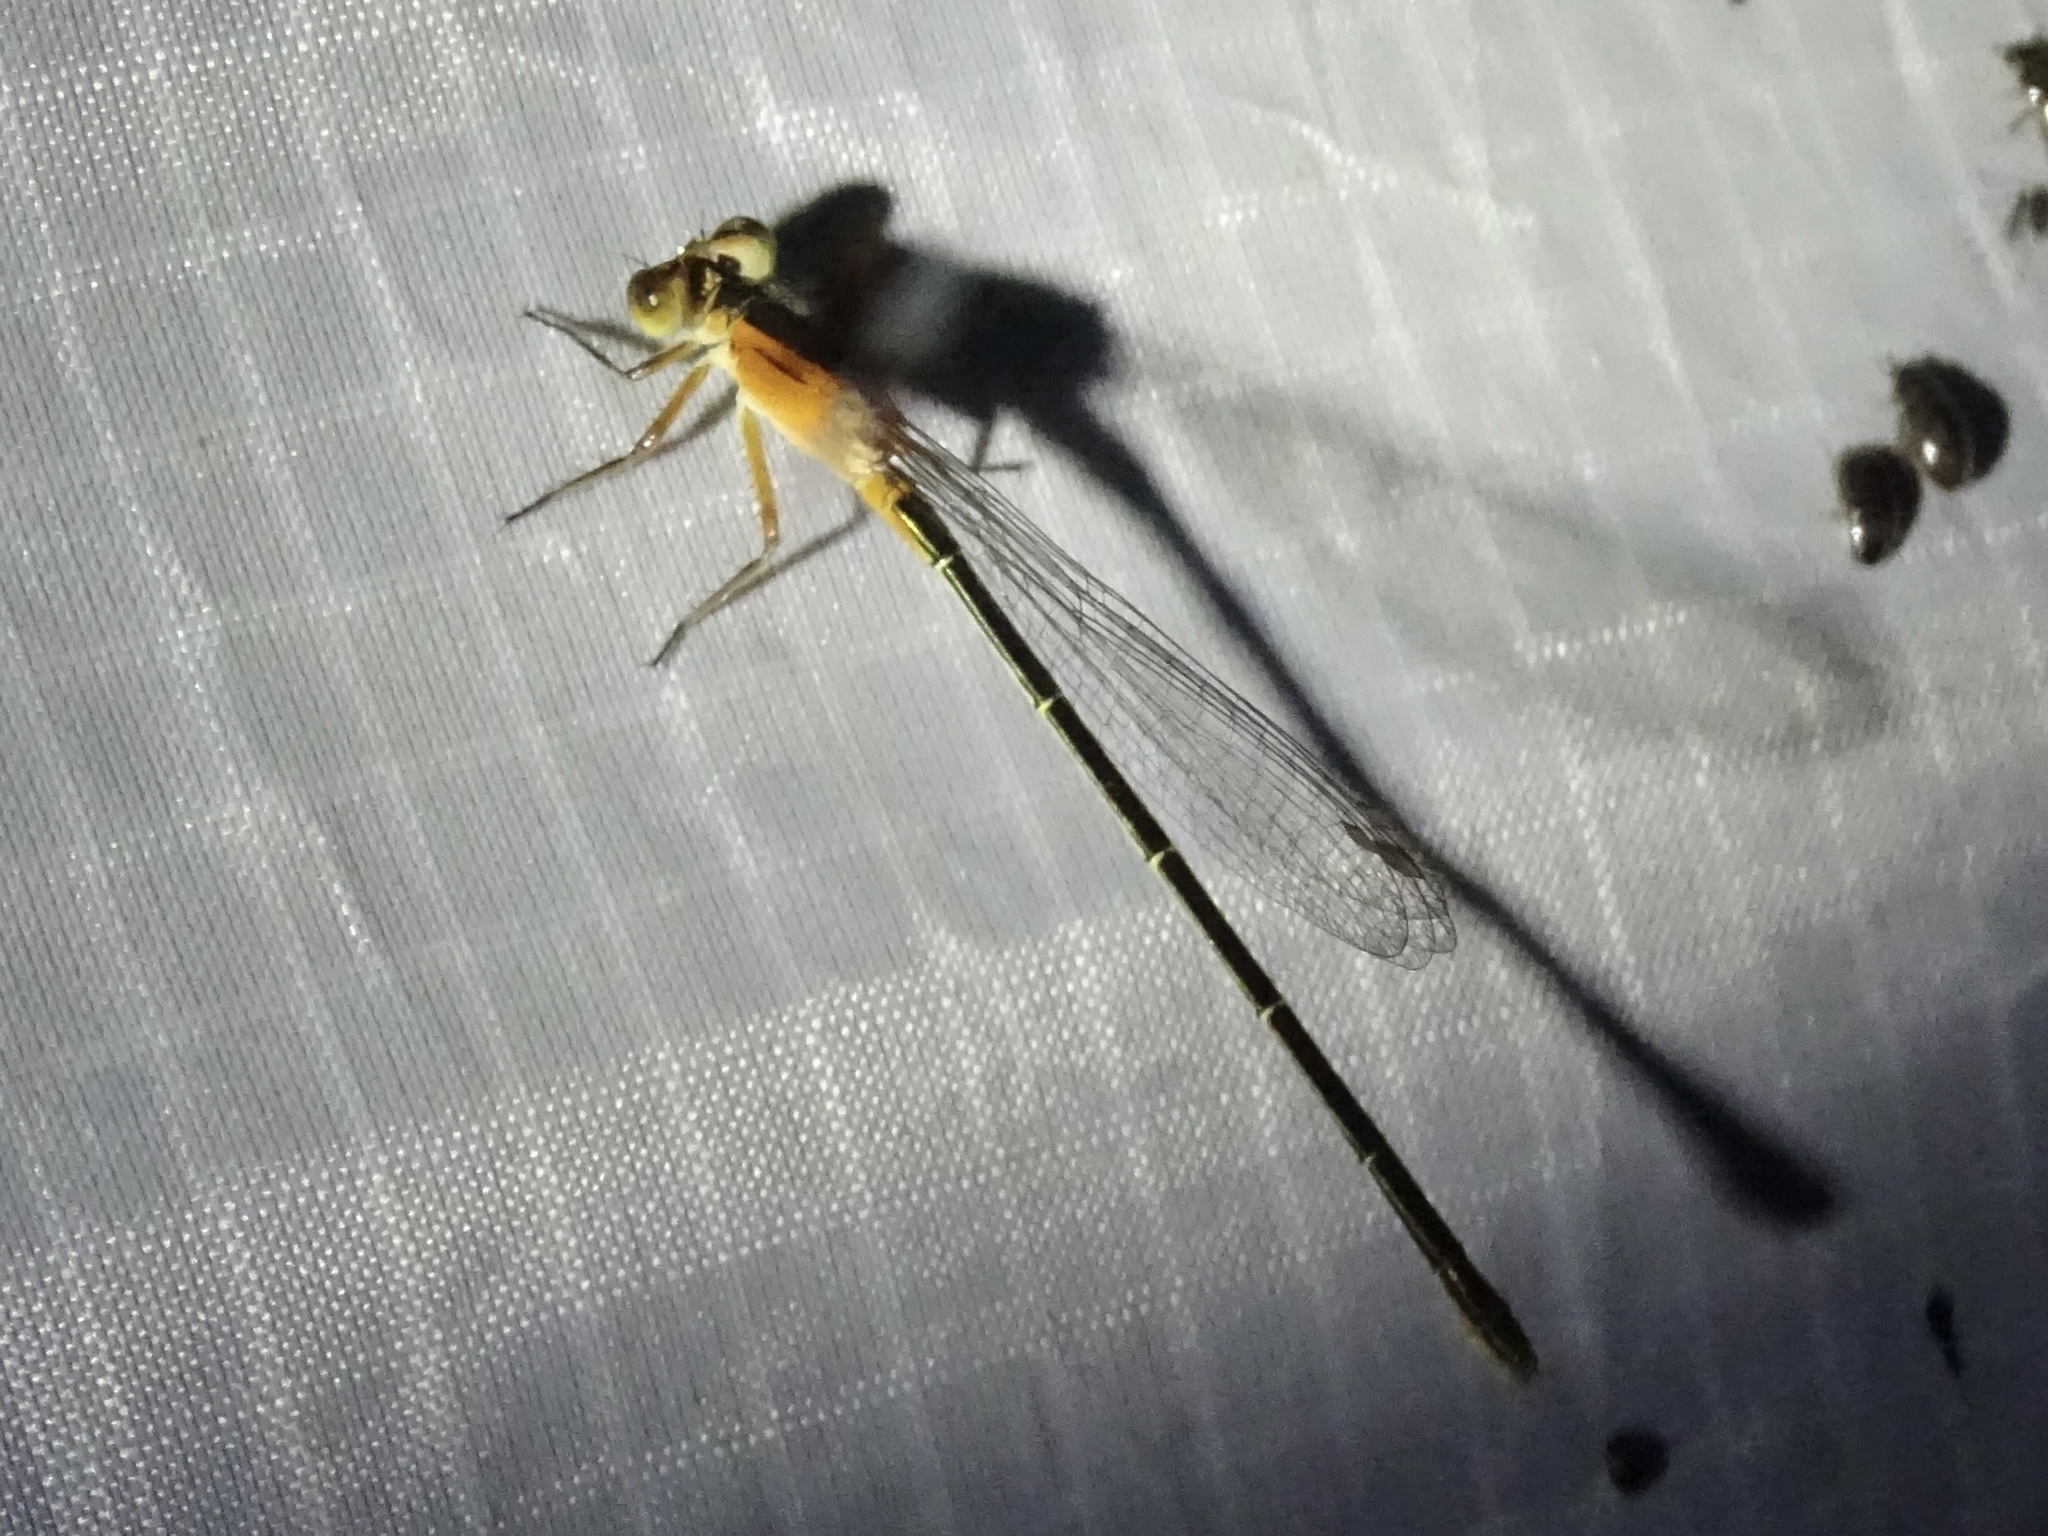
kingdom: Animalia
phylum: Arthropoda
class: Insecta
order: Odonata
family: Coenagrionidae
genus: Ischnura
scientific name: Ischnura ramburii
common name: Rambur's forktail
